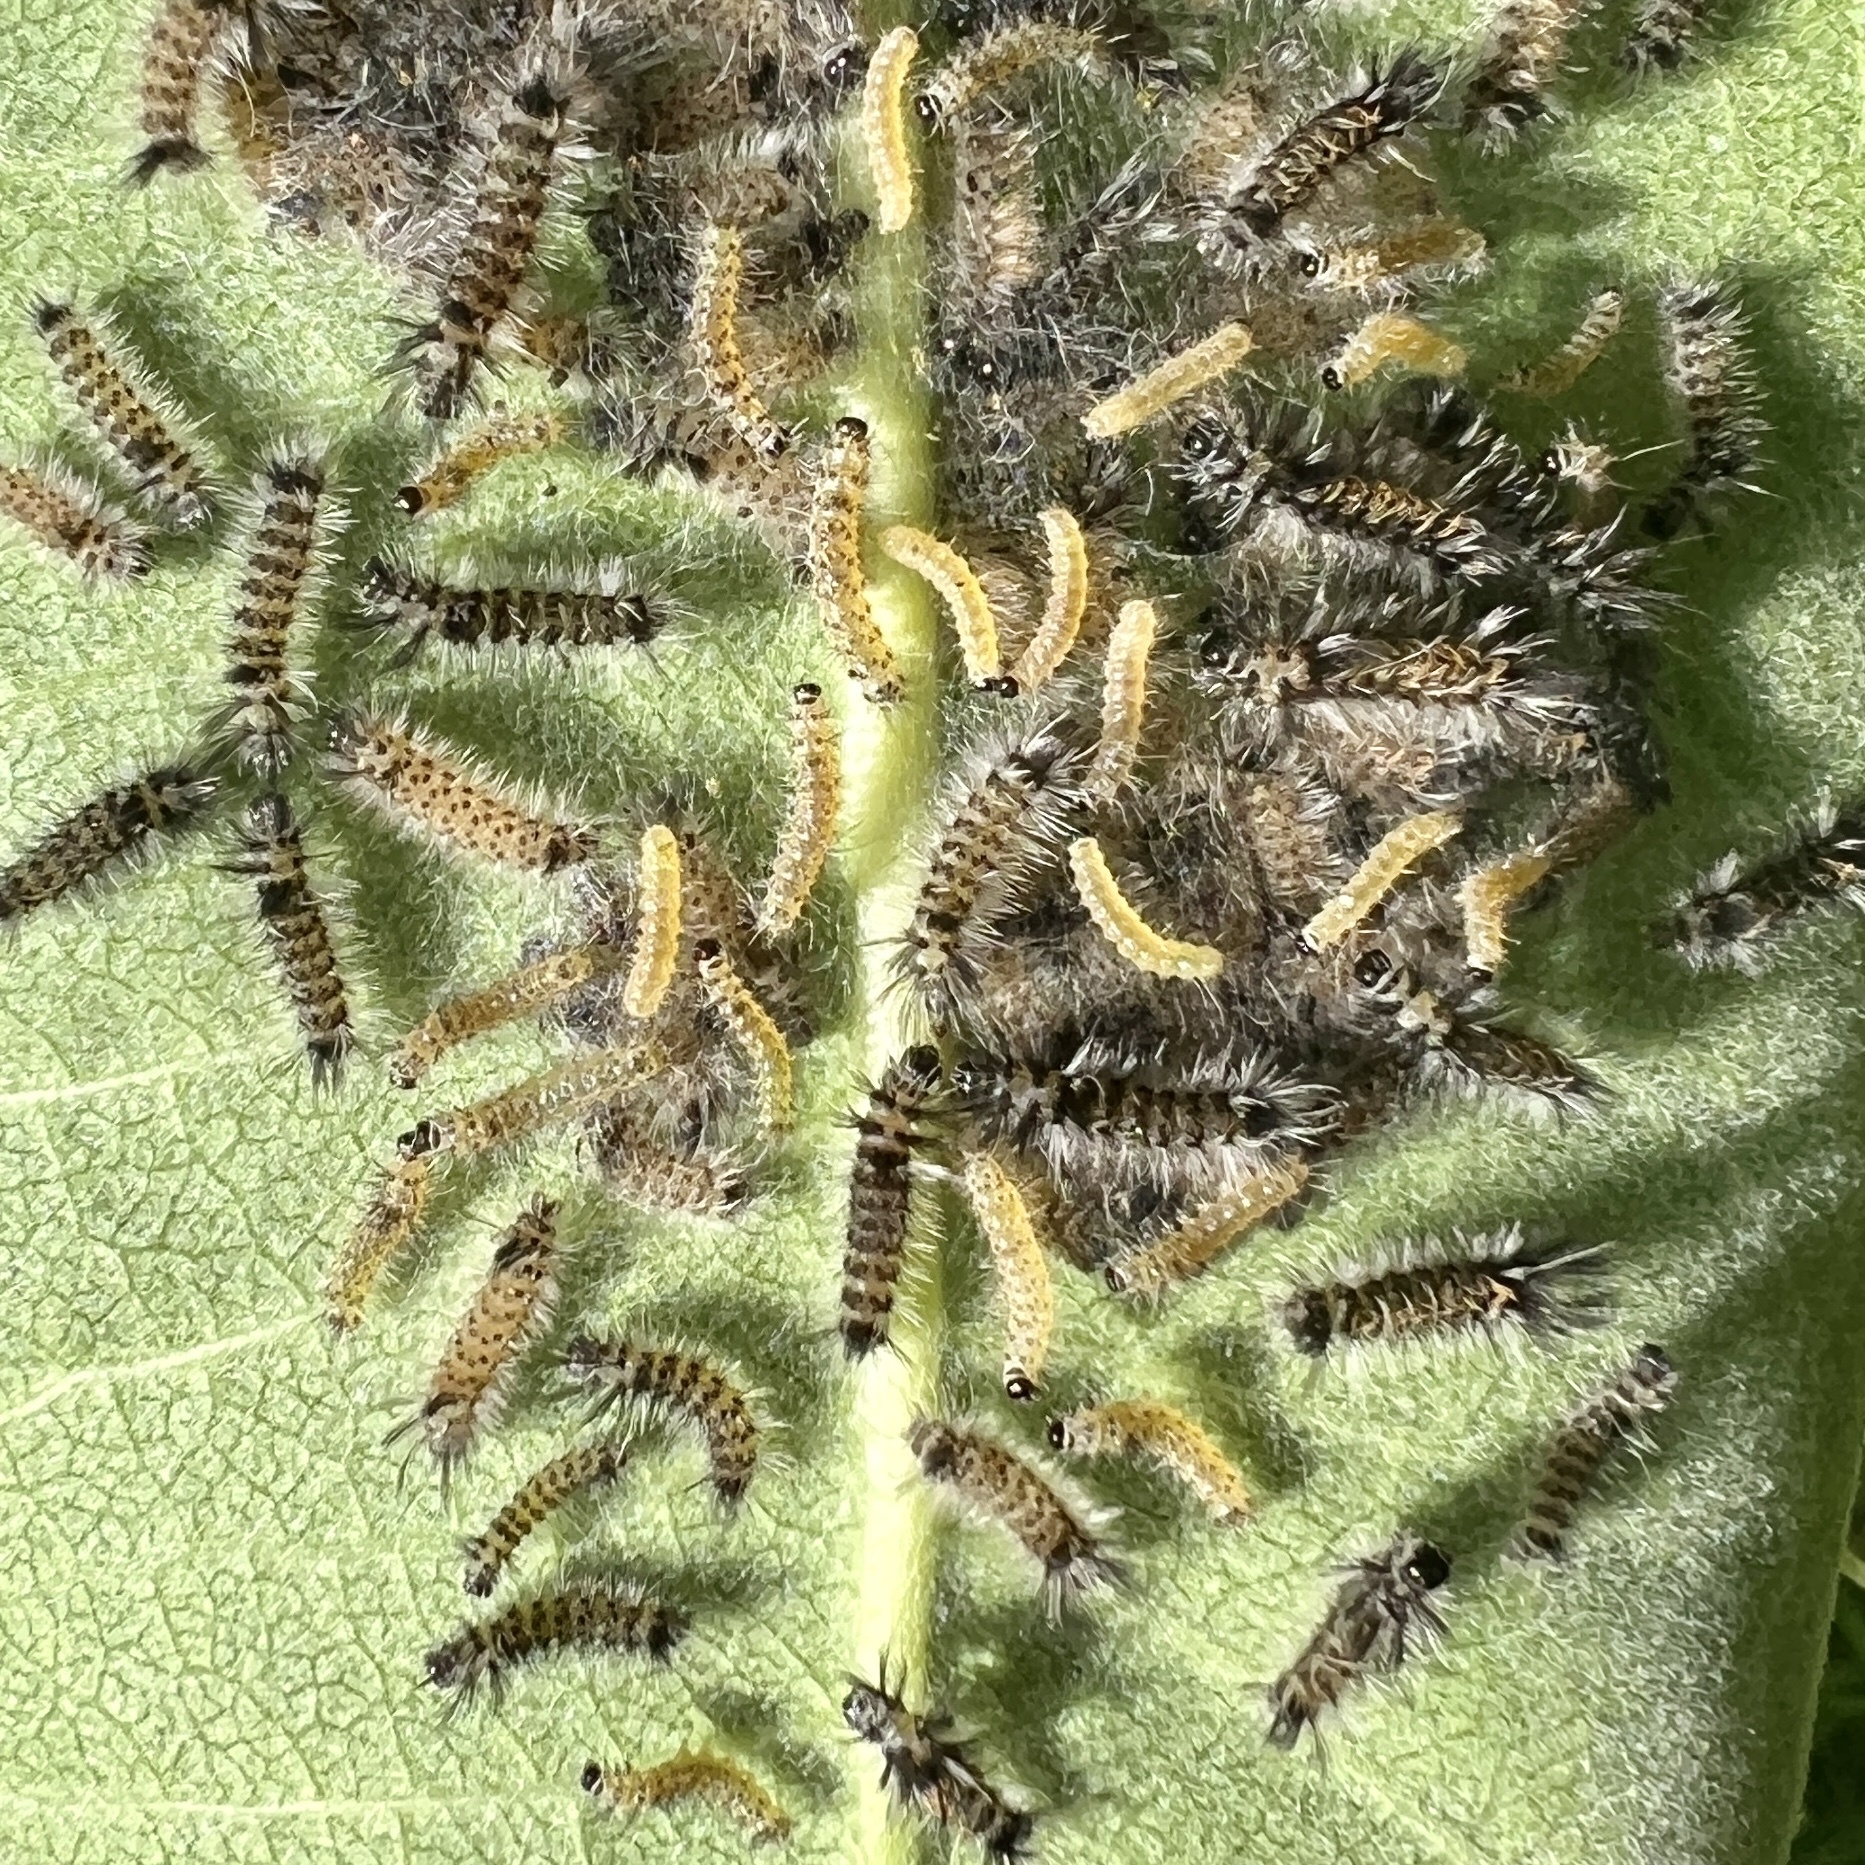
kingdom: Animalia
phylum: Arthropoda
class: Insecta
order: Lepidoptera
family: Erebidae
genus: Euchaetes
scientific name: Euchaetes egle
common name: Milkweed tussock moth
